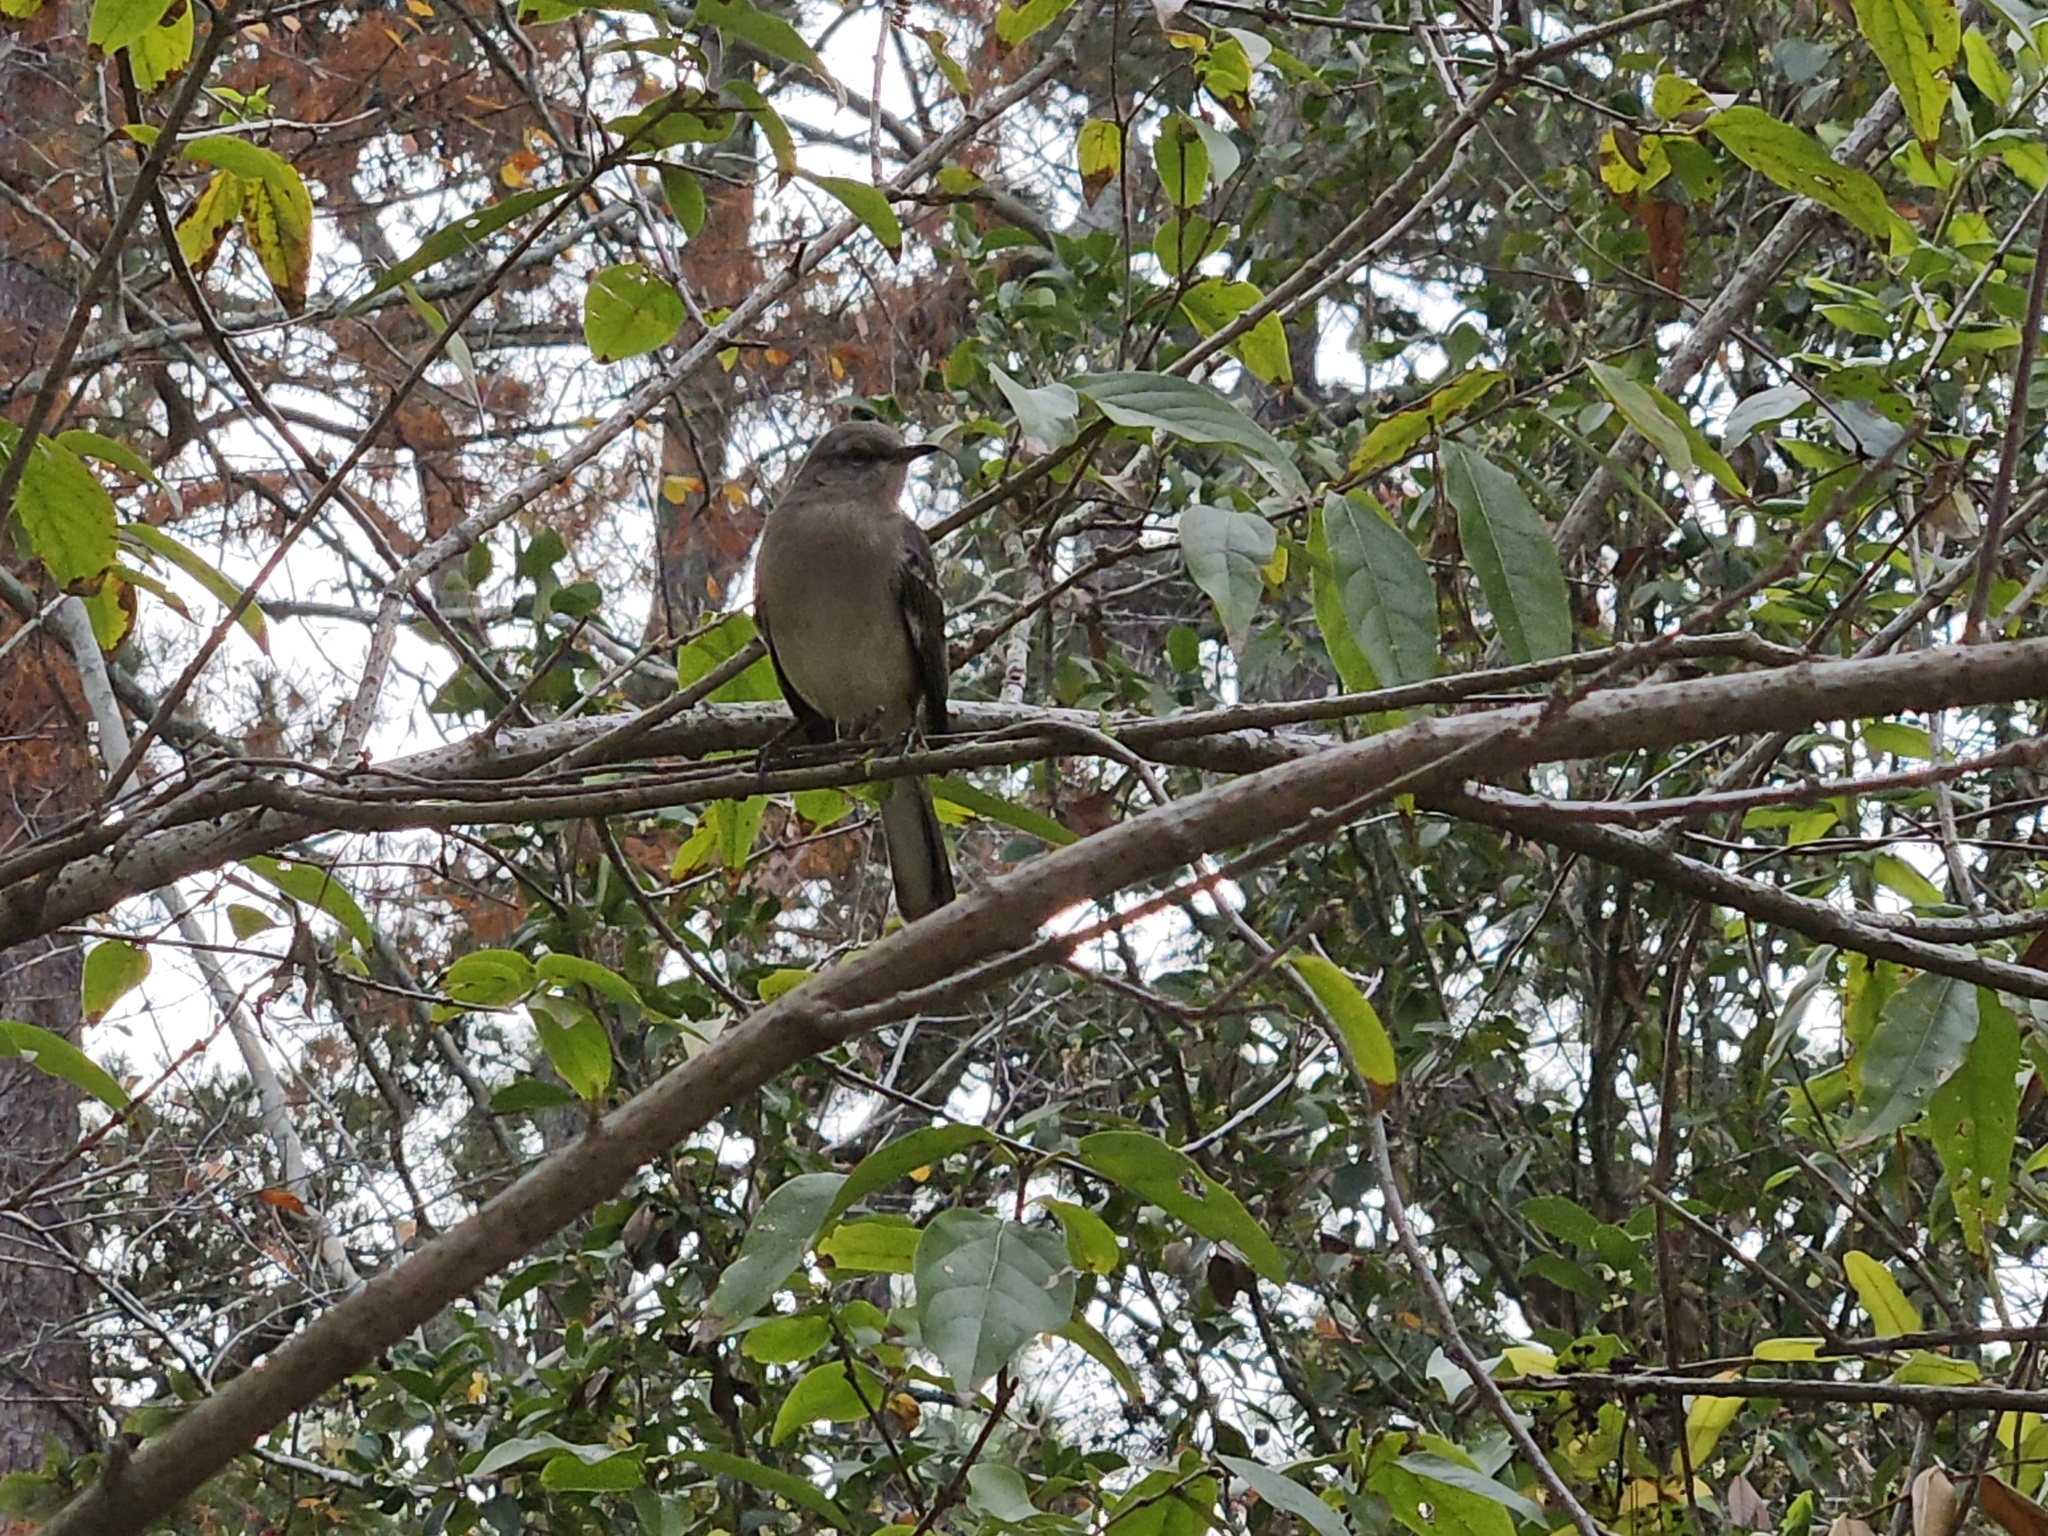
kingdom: Animalia
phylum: Chordata
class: Aves
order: Passeriformes
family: Mimidae
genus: Mimus
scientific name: Mimus polyglottos
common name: Northern mockingbird
